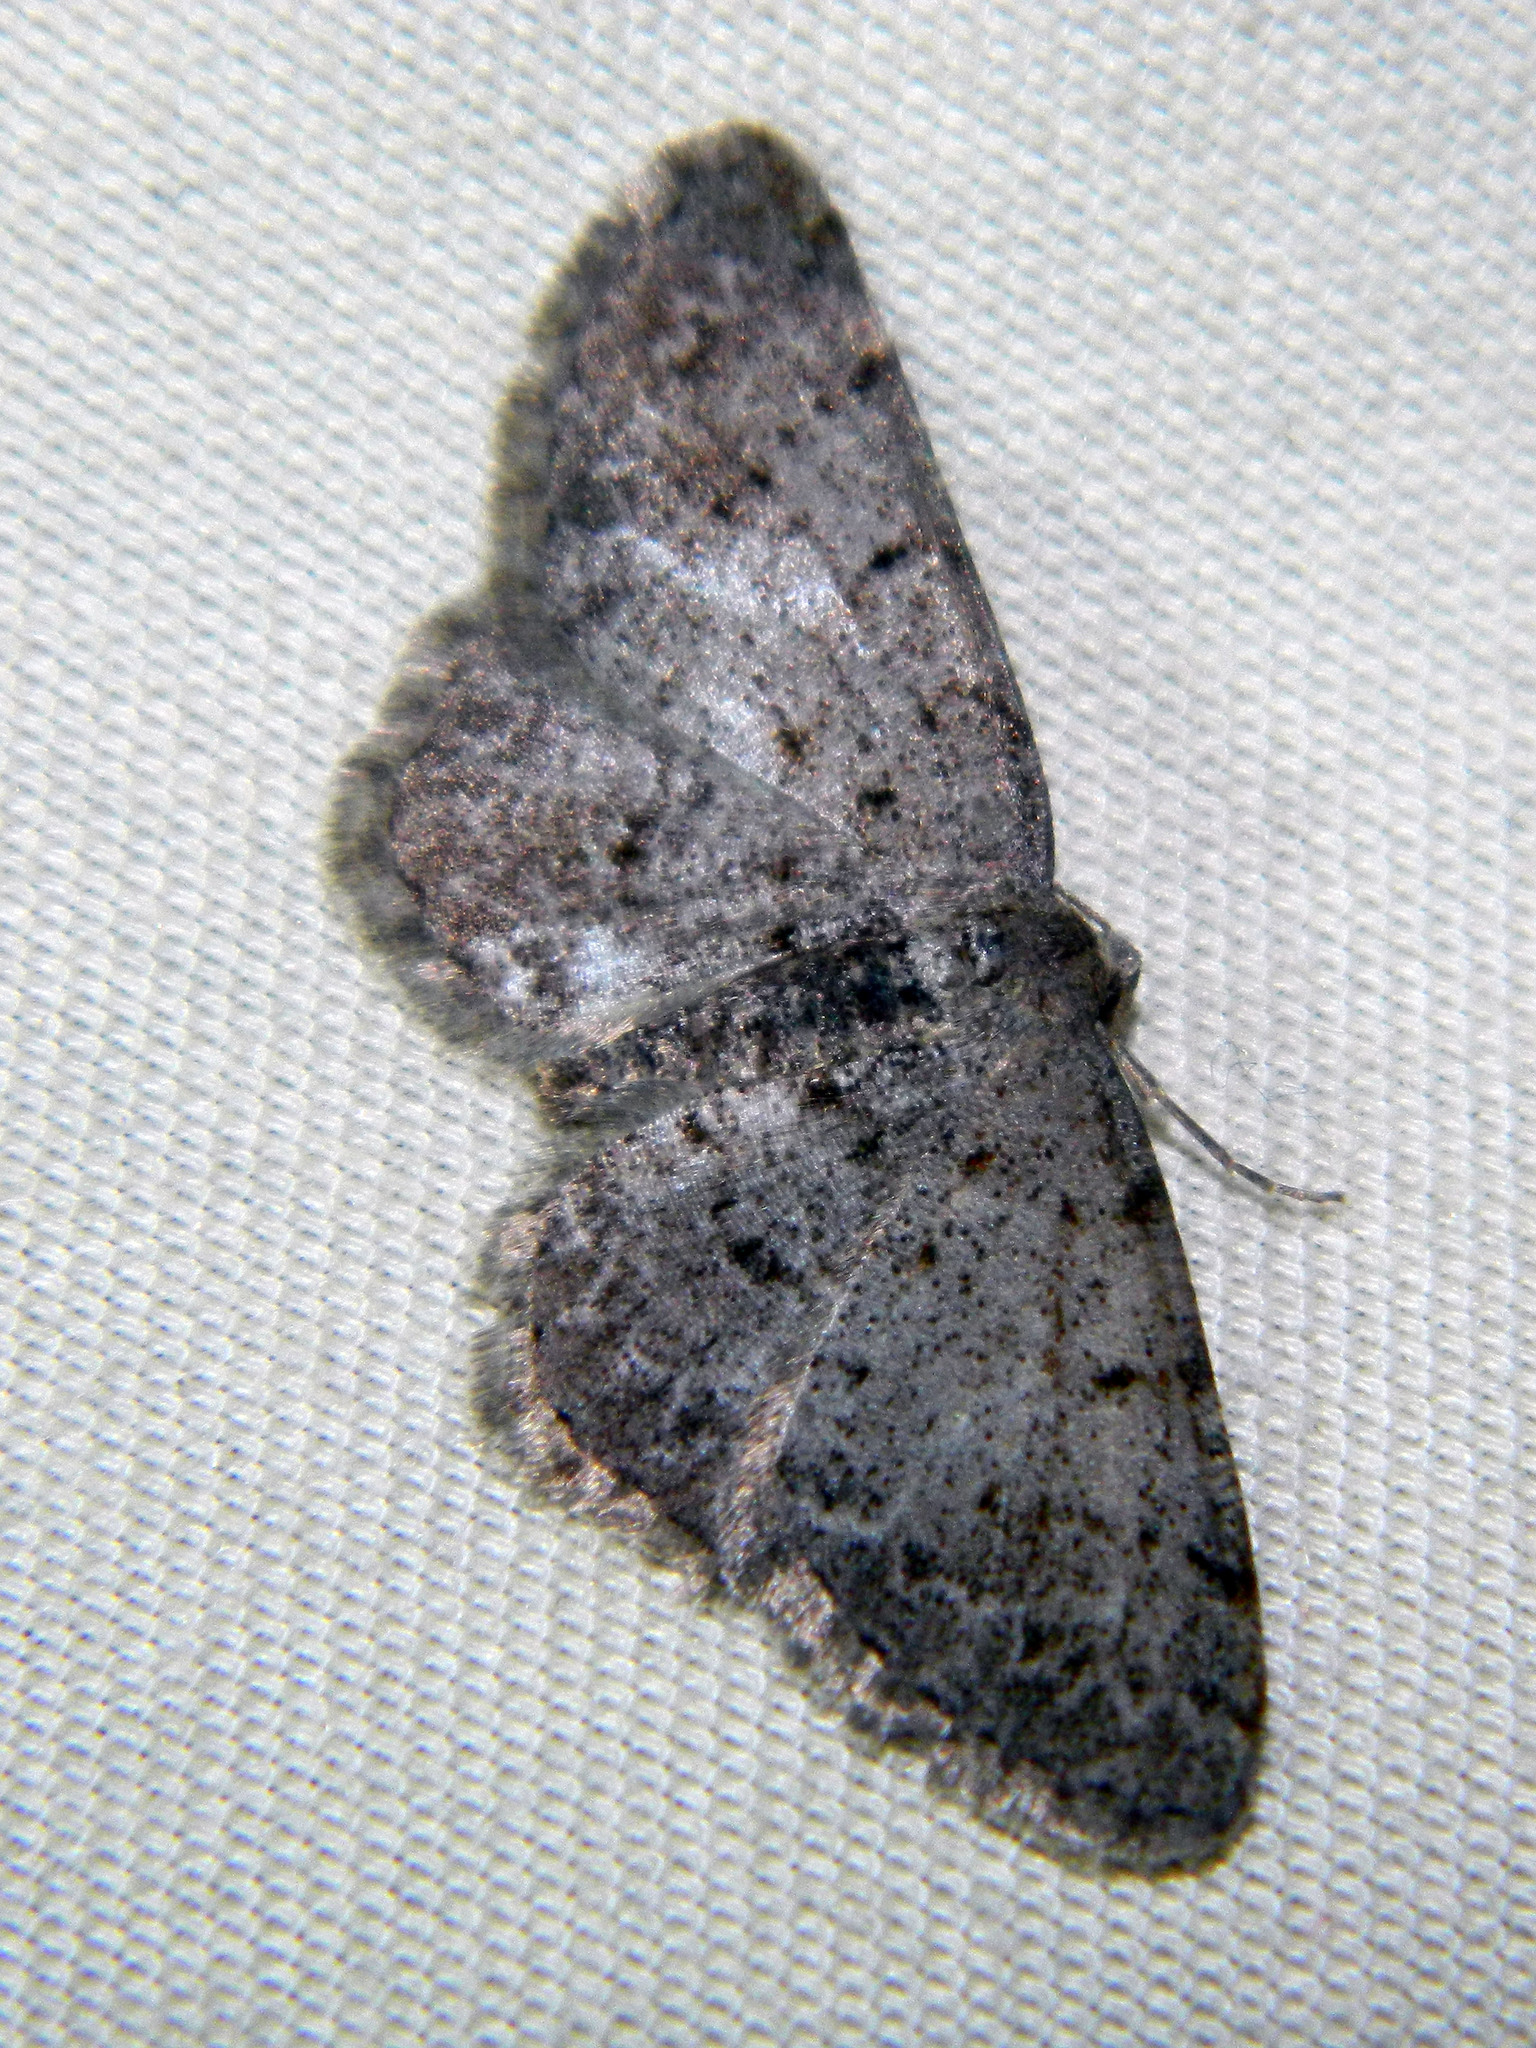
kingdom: Animalia
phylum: Arthropoda
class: Insecta
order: Lepidoptera
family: Geometridae
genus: Aethalura
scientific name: Aethalura intertexta
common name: Four-barred gray
